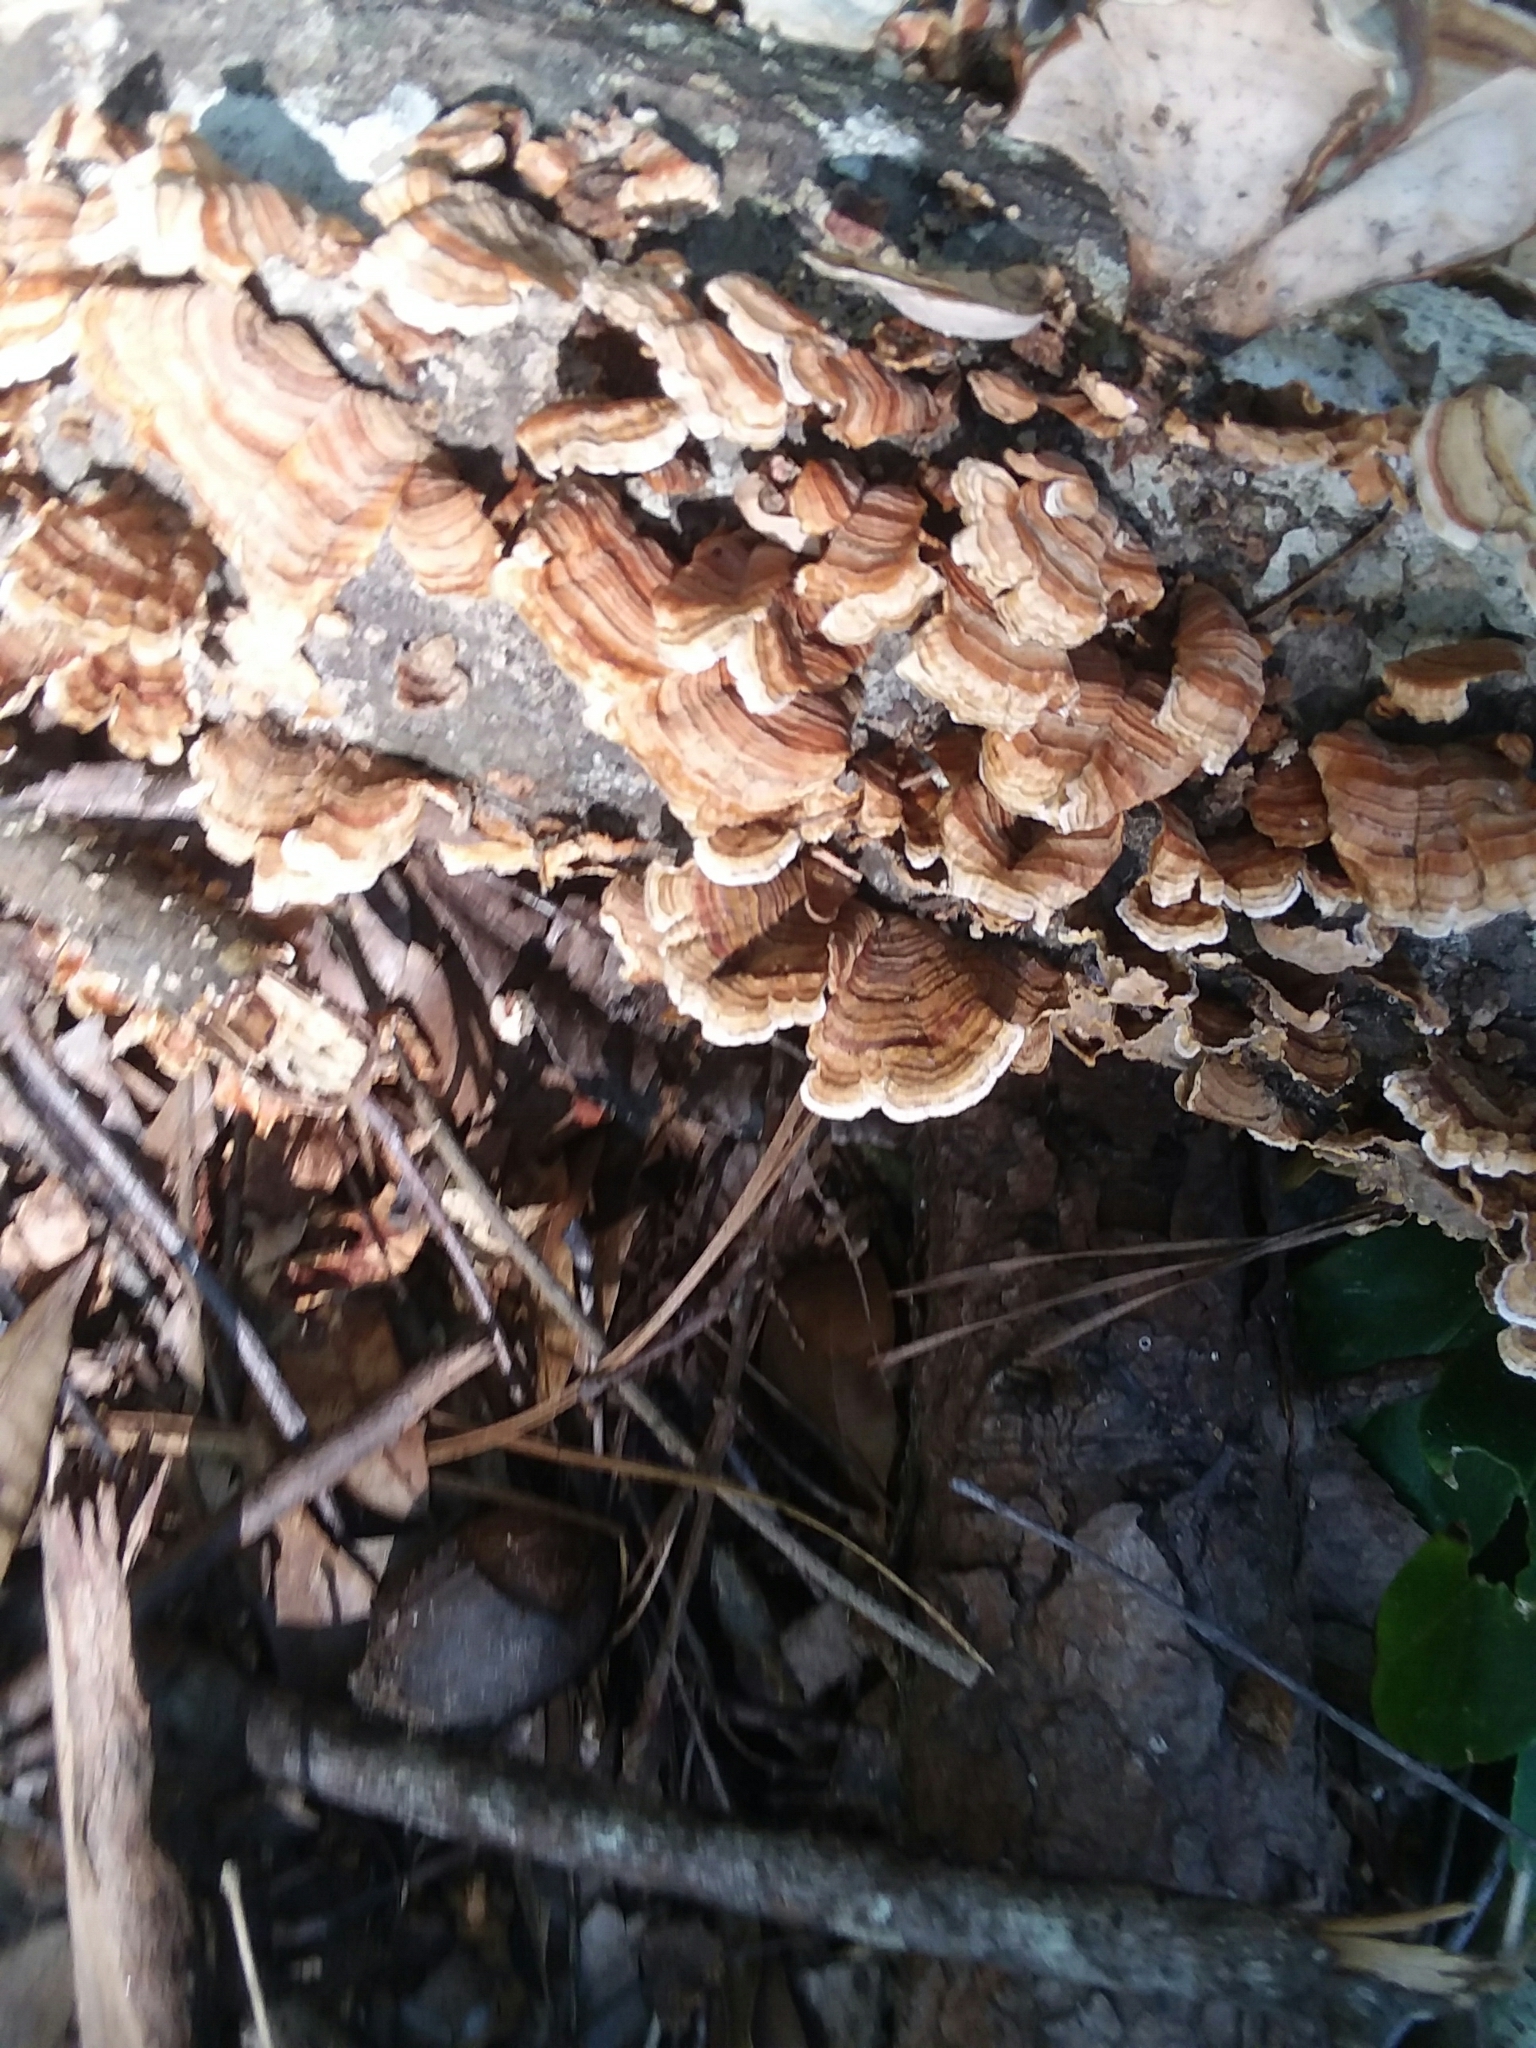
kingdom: Fungi
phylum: Basidiomycota
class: Agaricomycetes
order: Russulales
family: Stereaceae
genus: Stereum
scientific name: Stereum lobatum
